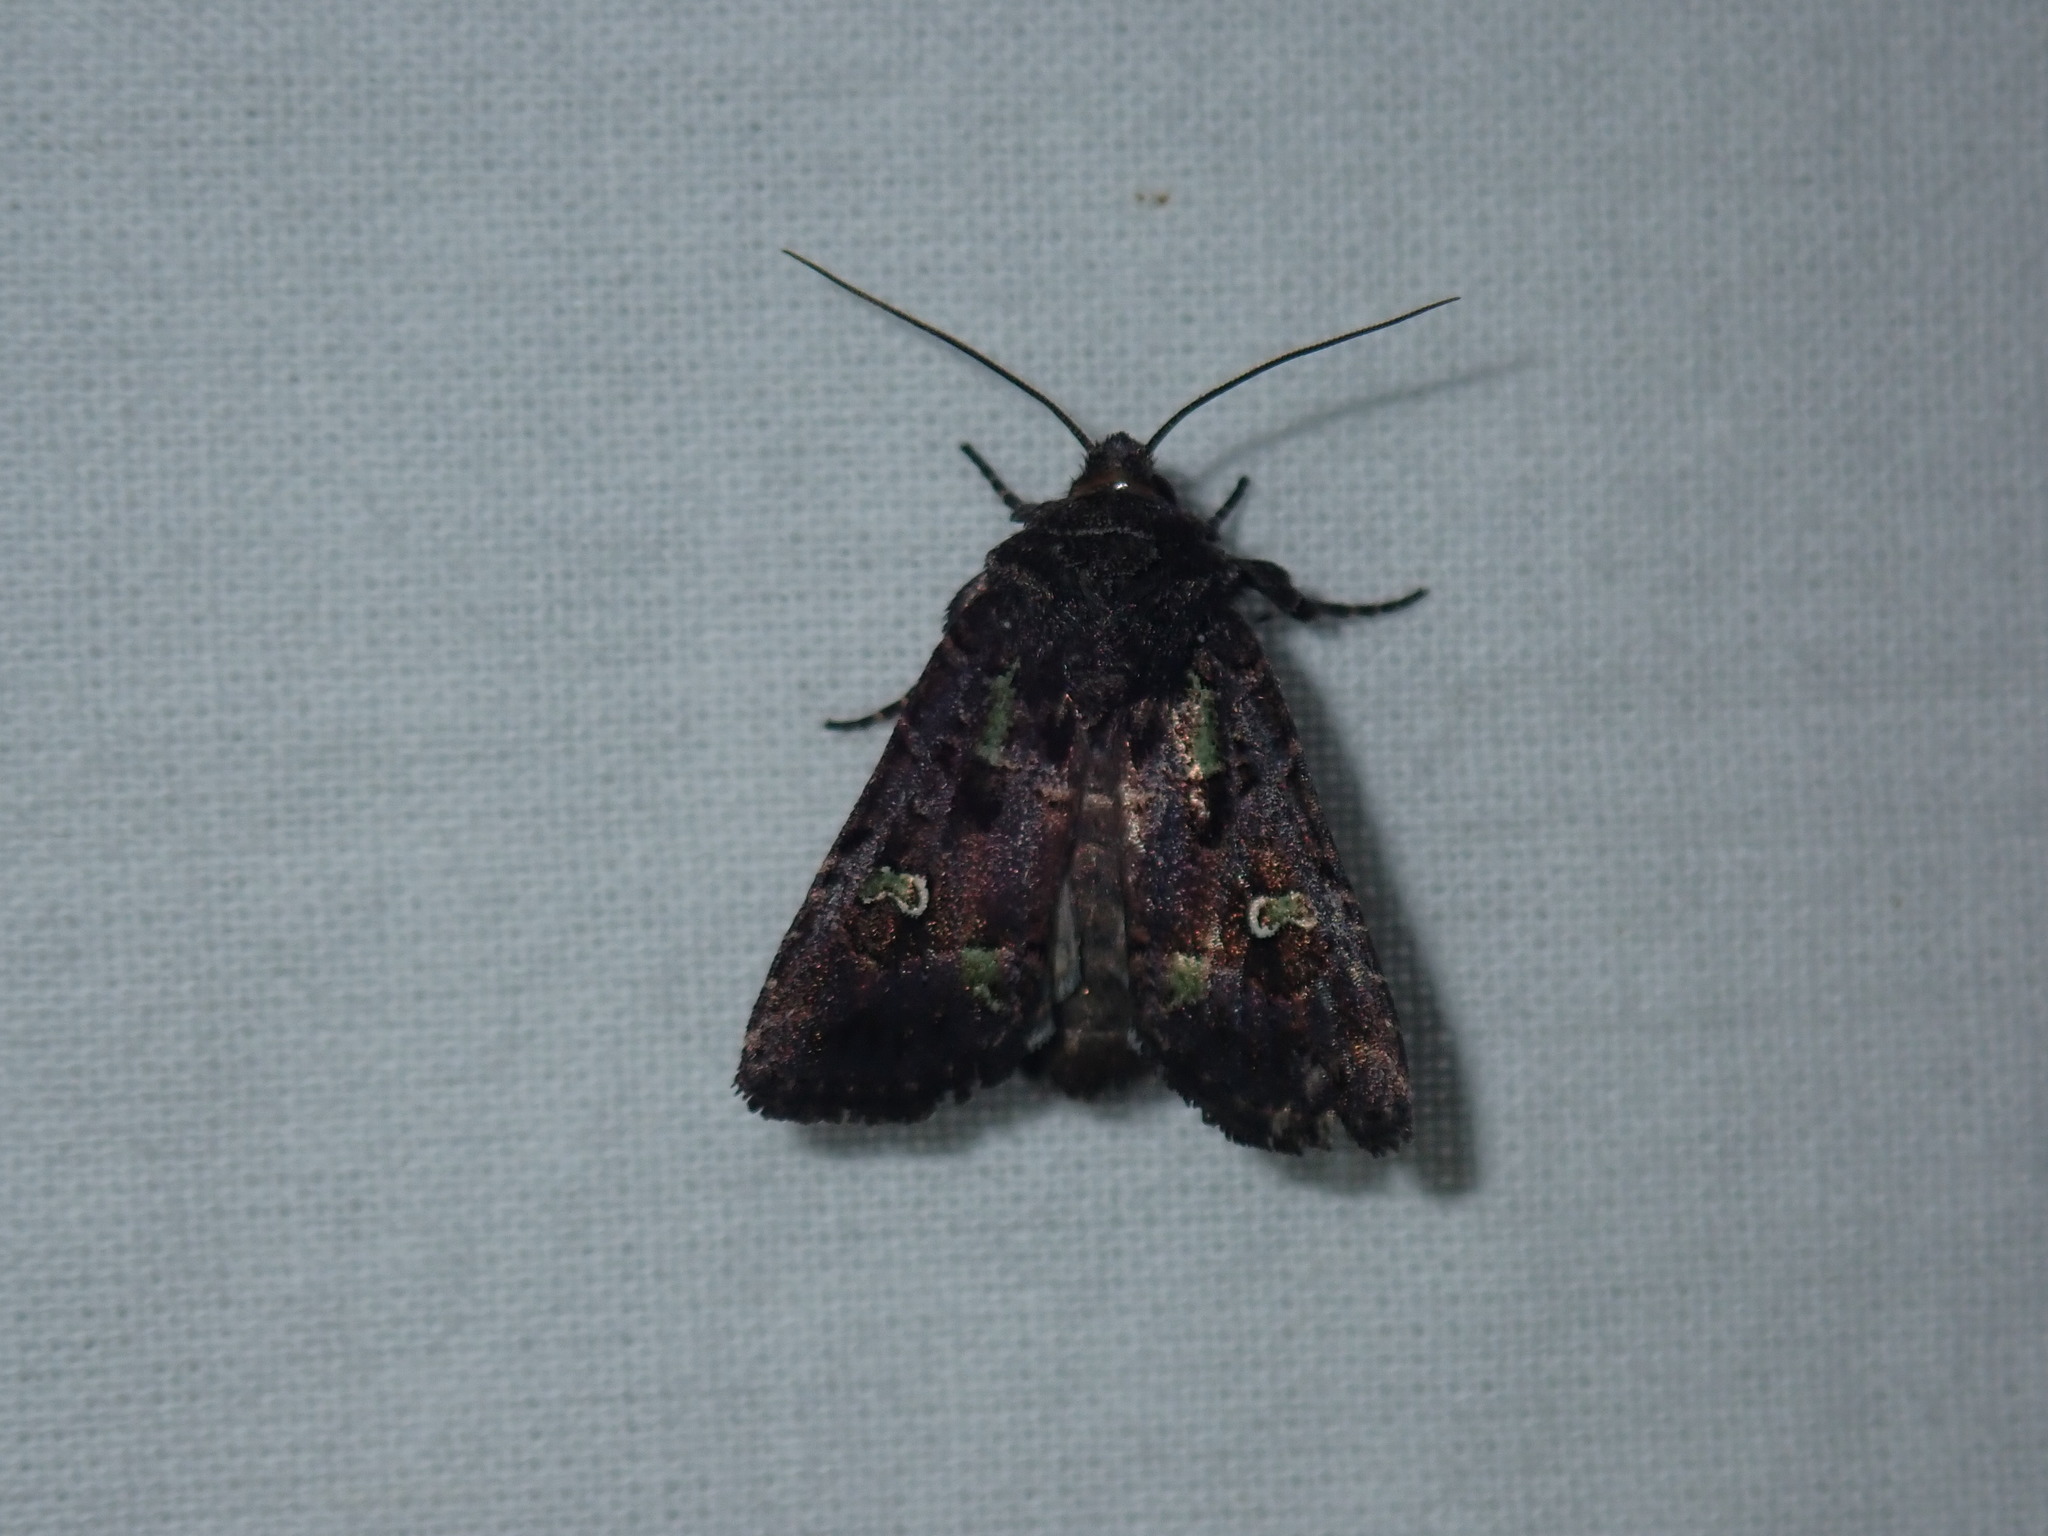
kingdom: Animalia
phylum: Arthropoda
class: Insecta
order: Lepidoptera
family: Noctuidae
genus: Lacinipolia
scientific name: Lacinipolia renigera
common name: Kidney-spotted minor
